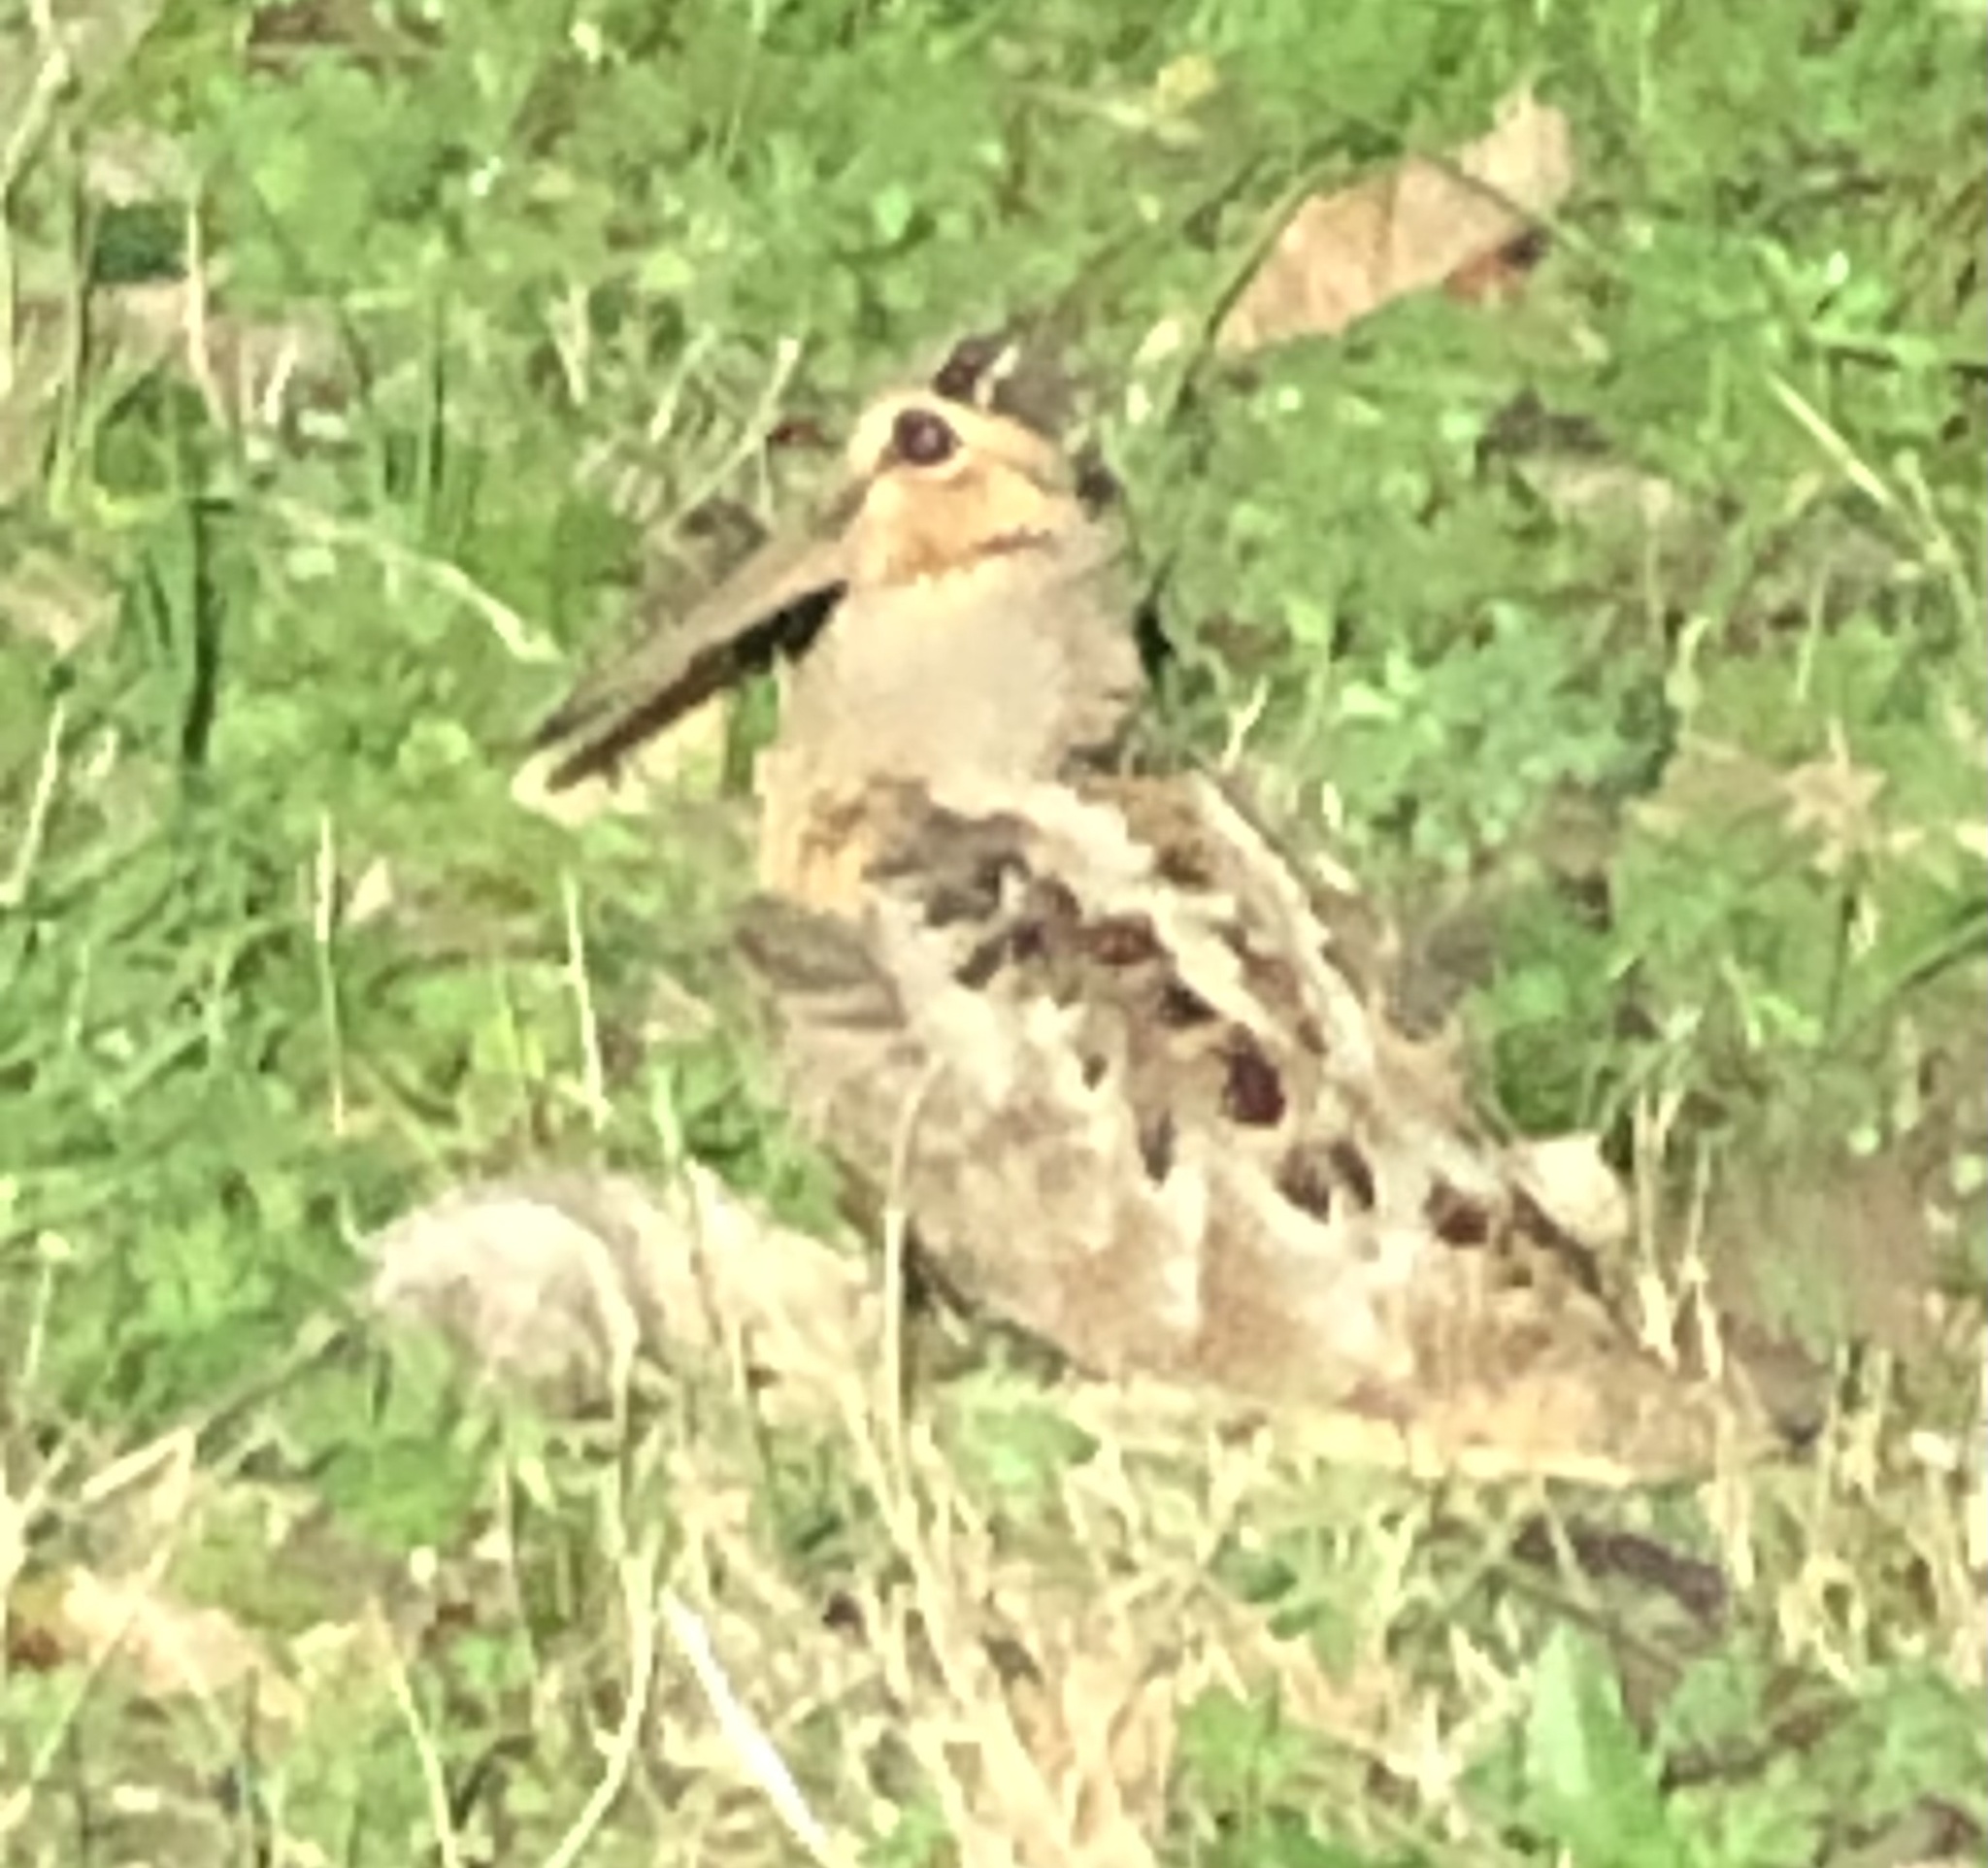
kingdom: Animalia
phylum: Chordata
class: Aves
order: Charadriiformes
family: Scolopacidae
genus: Scolopax
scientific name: Scolopax minor
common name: American woodcock
